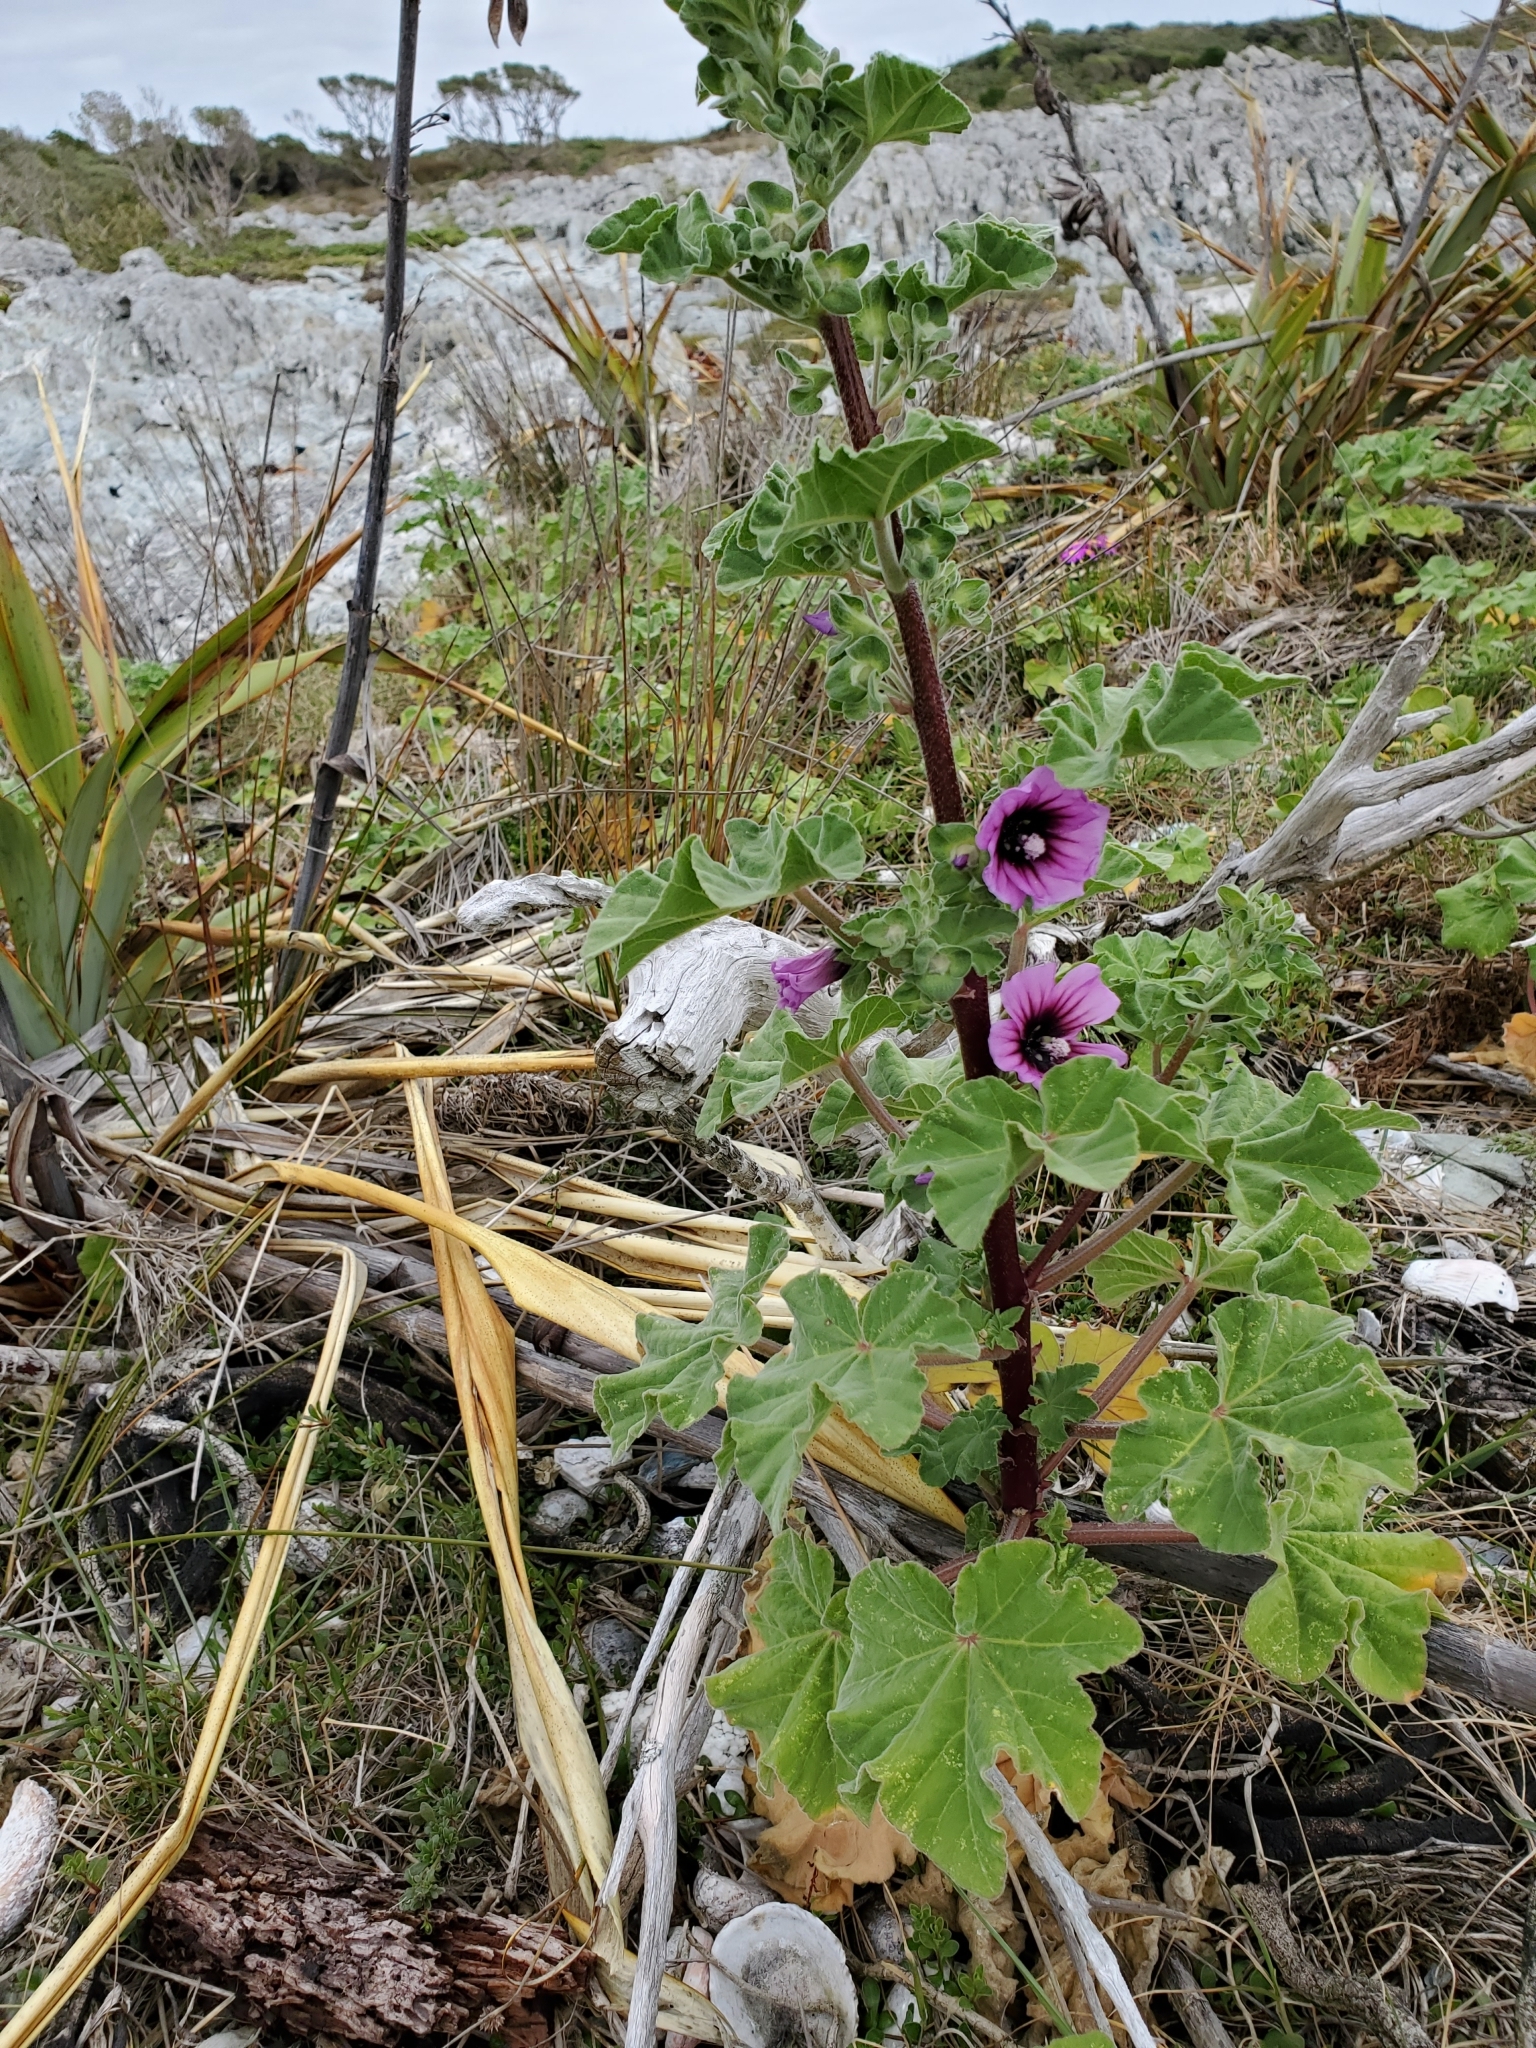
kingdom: Plantae
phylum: Tracheophyta
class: Magnoliopsida
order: Malvales
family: Malvaceae
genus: Malva
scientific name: Malva arborea
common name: Tree mallow
